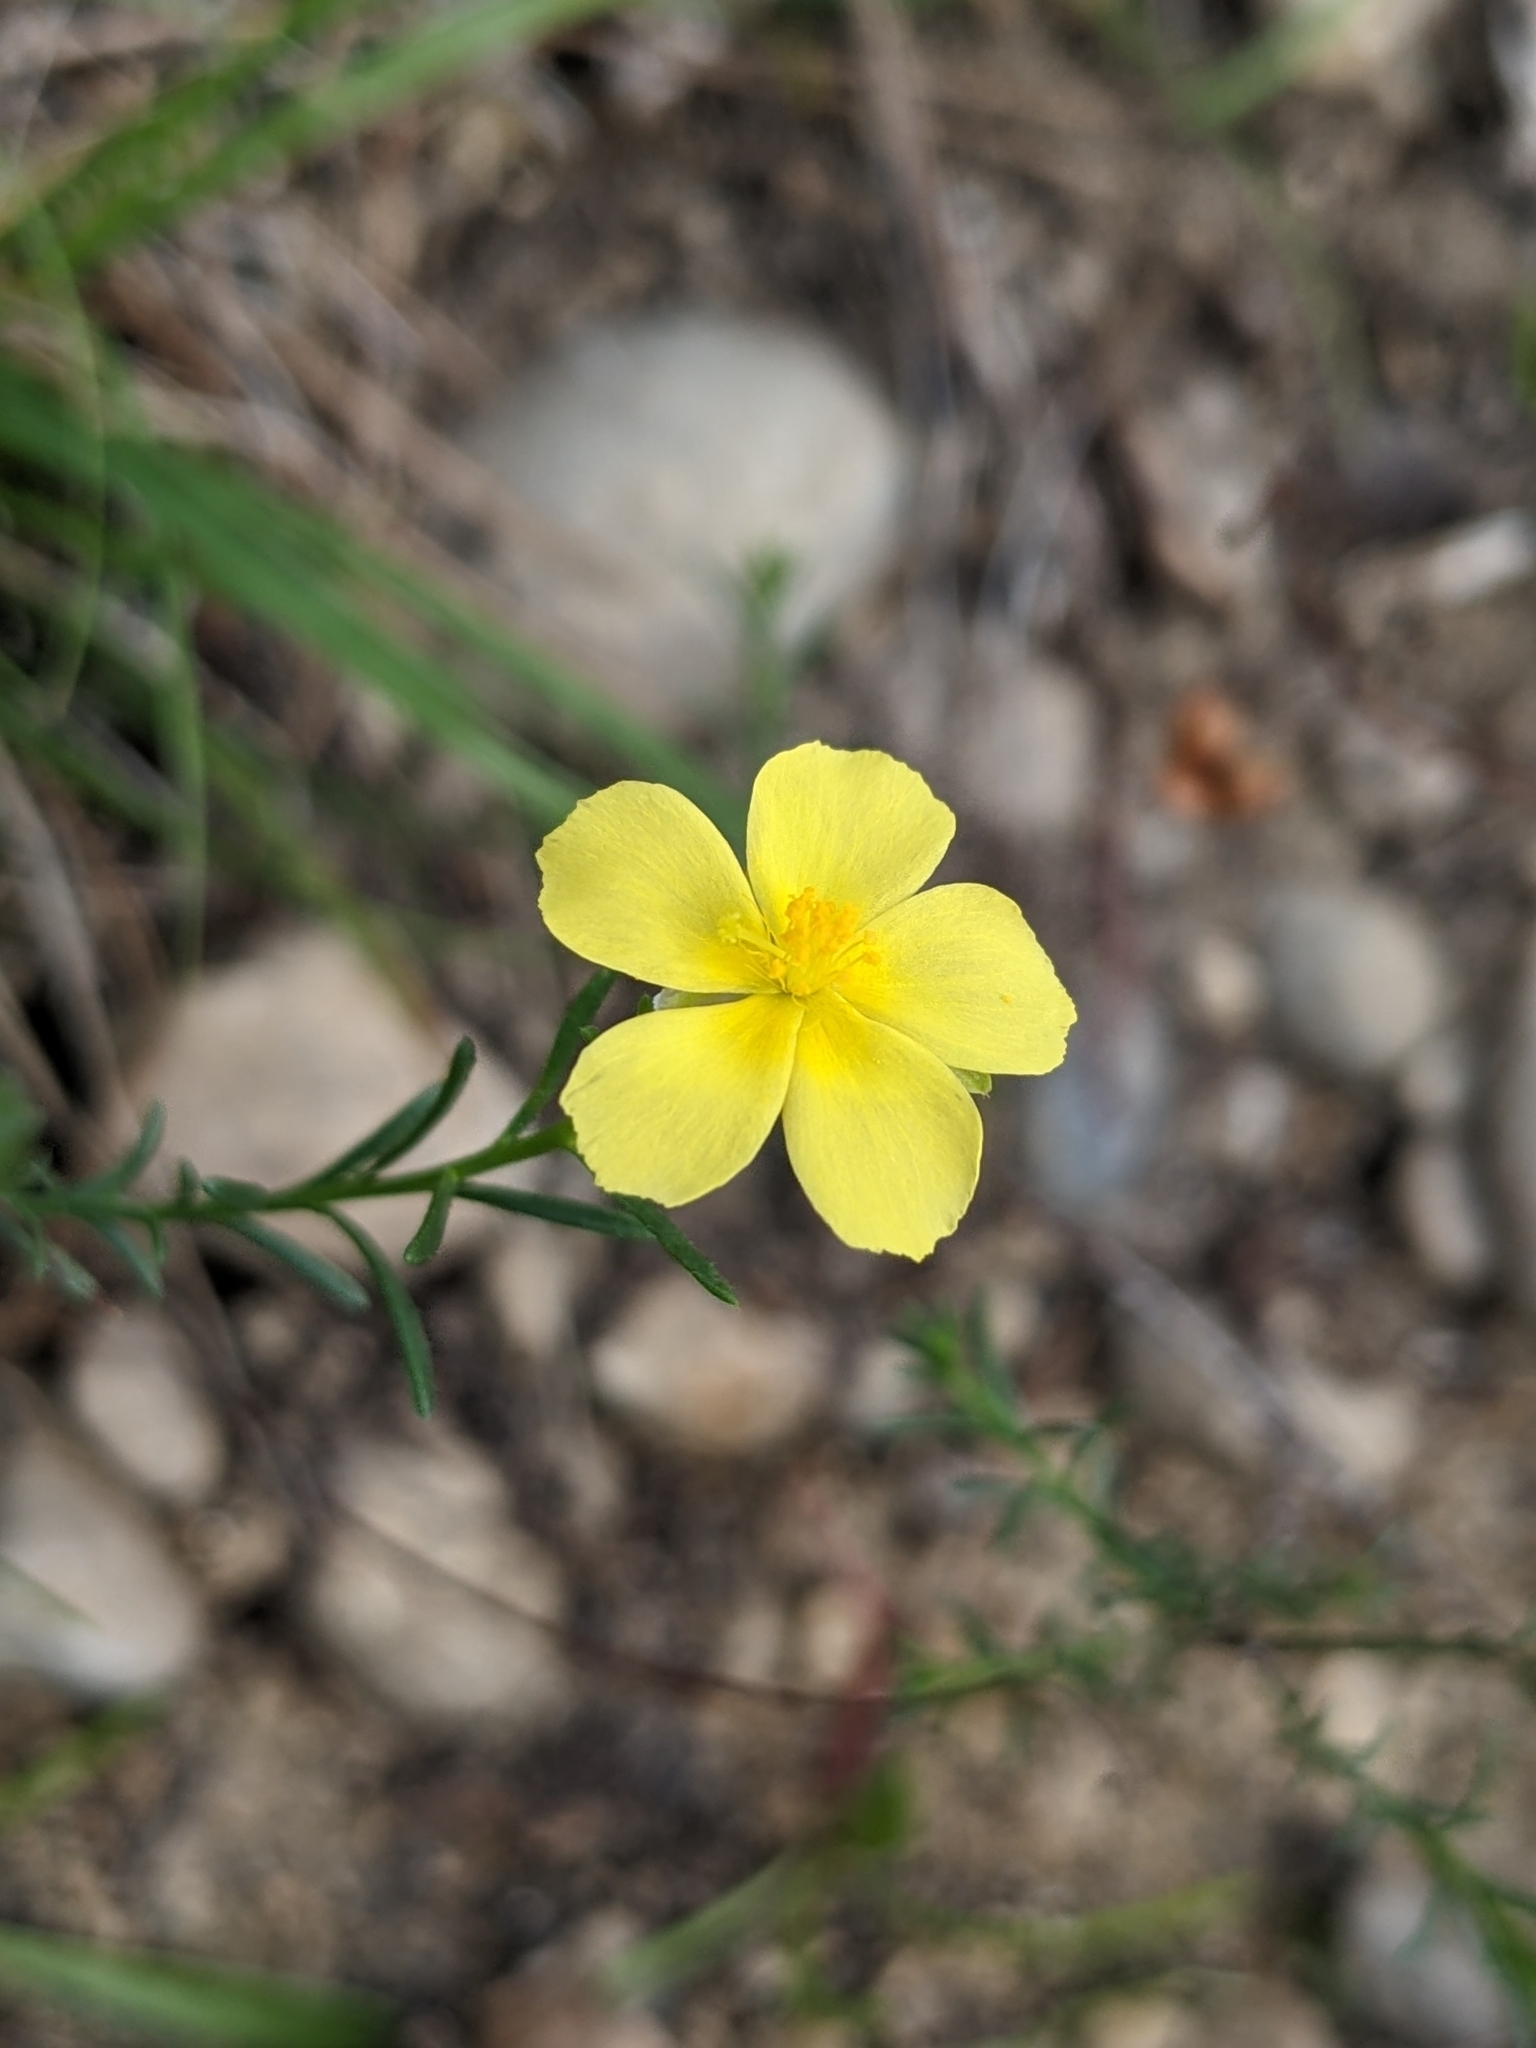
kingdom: Plantae
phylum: Tracheophyta
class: Magnoliopsida
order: Malvales
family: Cistaceae
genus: Fumana
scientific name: Fumana procumbens
